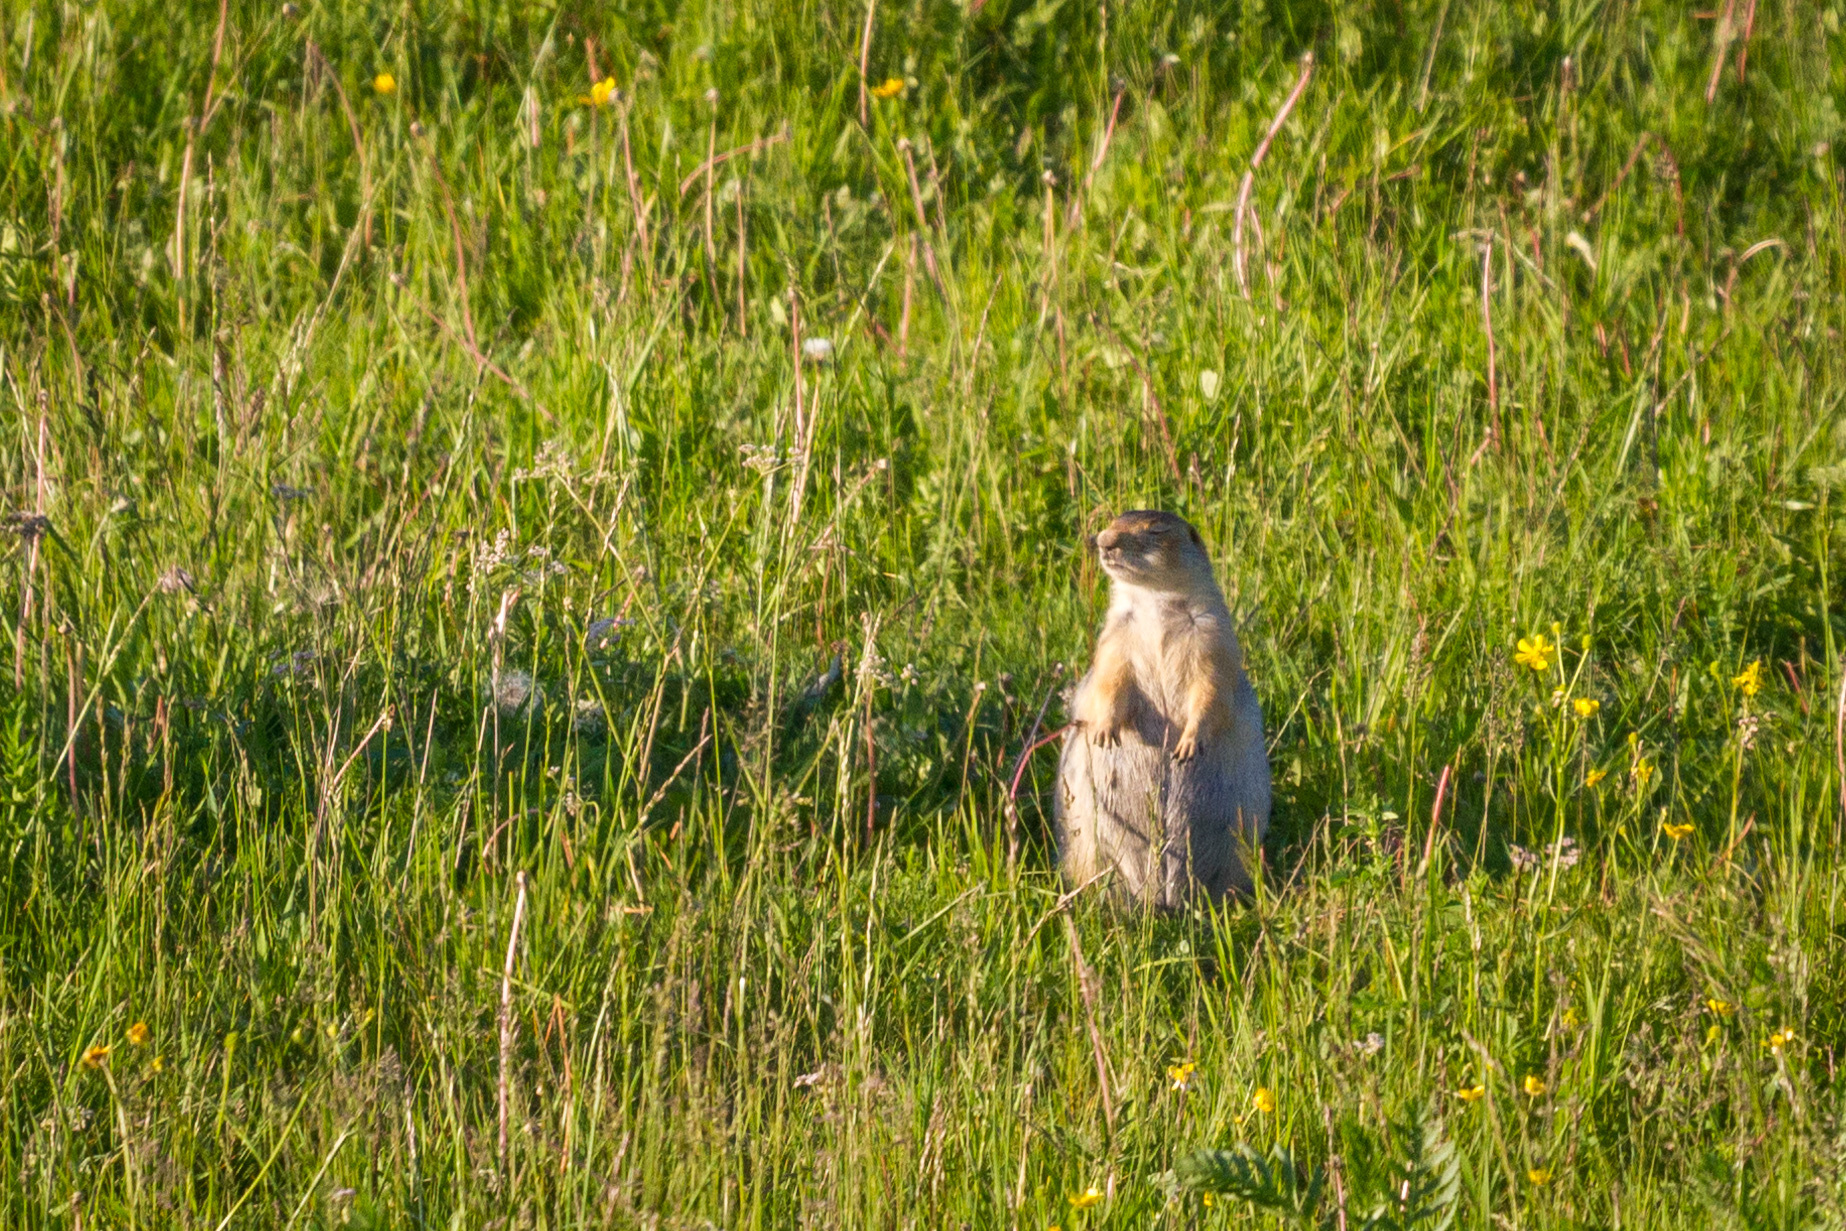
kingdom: Animalia
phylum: Chordata
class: Mammalia
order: Rodentia
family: Sciuridae
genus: Spermophilus
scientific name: Spermophilus major
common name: Russet ground squirrel
